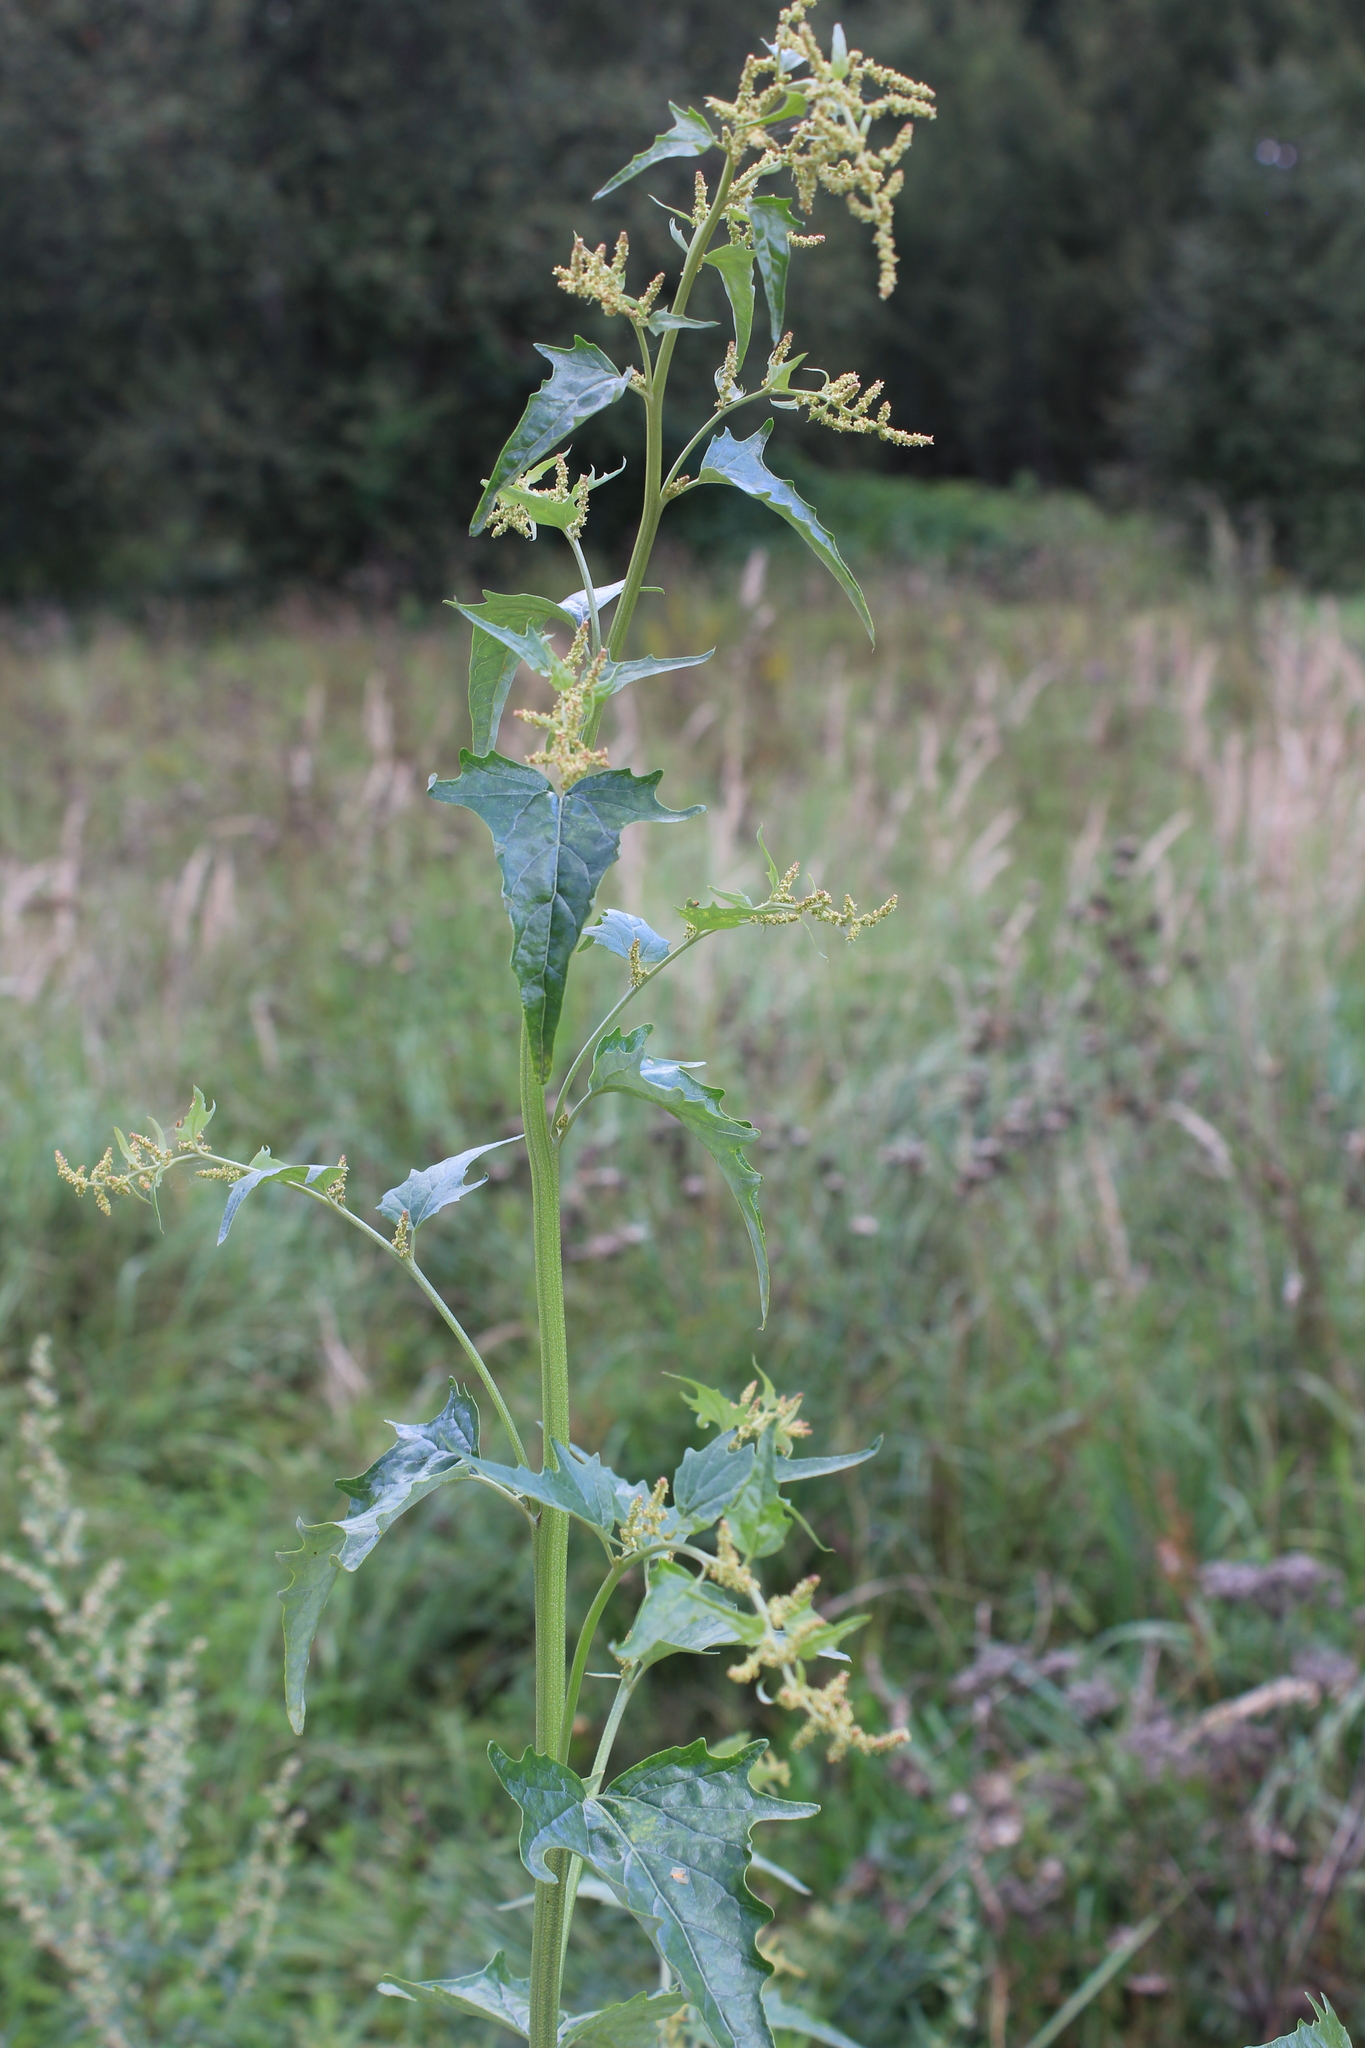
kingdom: Plantae
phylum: Tracheophyta
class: Magnoliopsida
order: Caryophyllales
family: Amaranthaceae
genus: Atriplex
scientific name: Atriplex sagittata
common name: Purple orache
